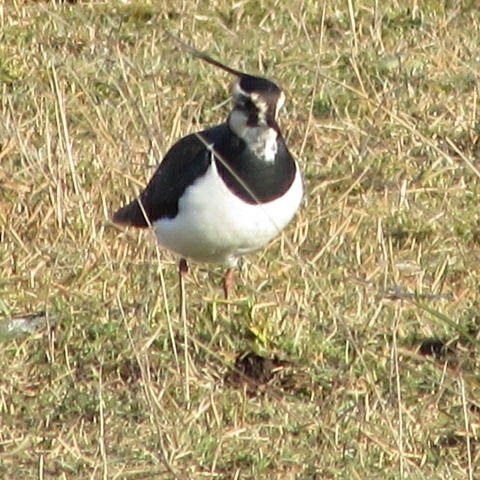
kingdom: Animalia
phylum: Chordata
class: Aves
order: Charadriiformes
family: Charadriidae
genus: Vanellus
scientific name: Vanellus vanellus
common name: Northern lapwing
